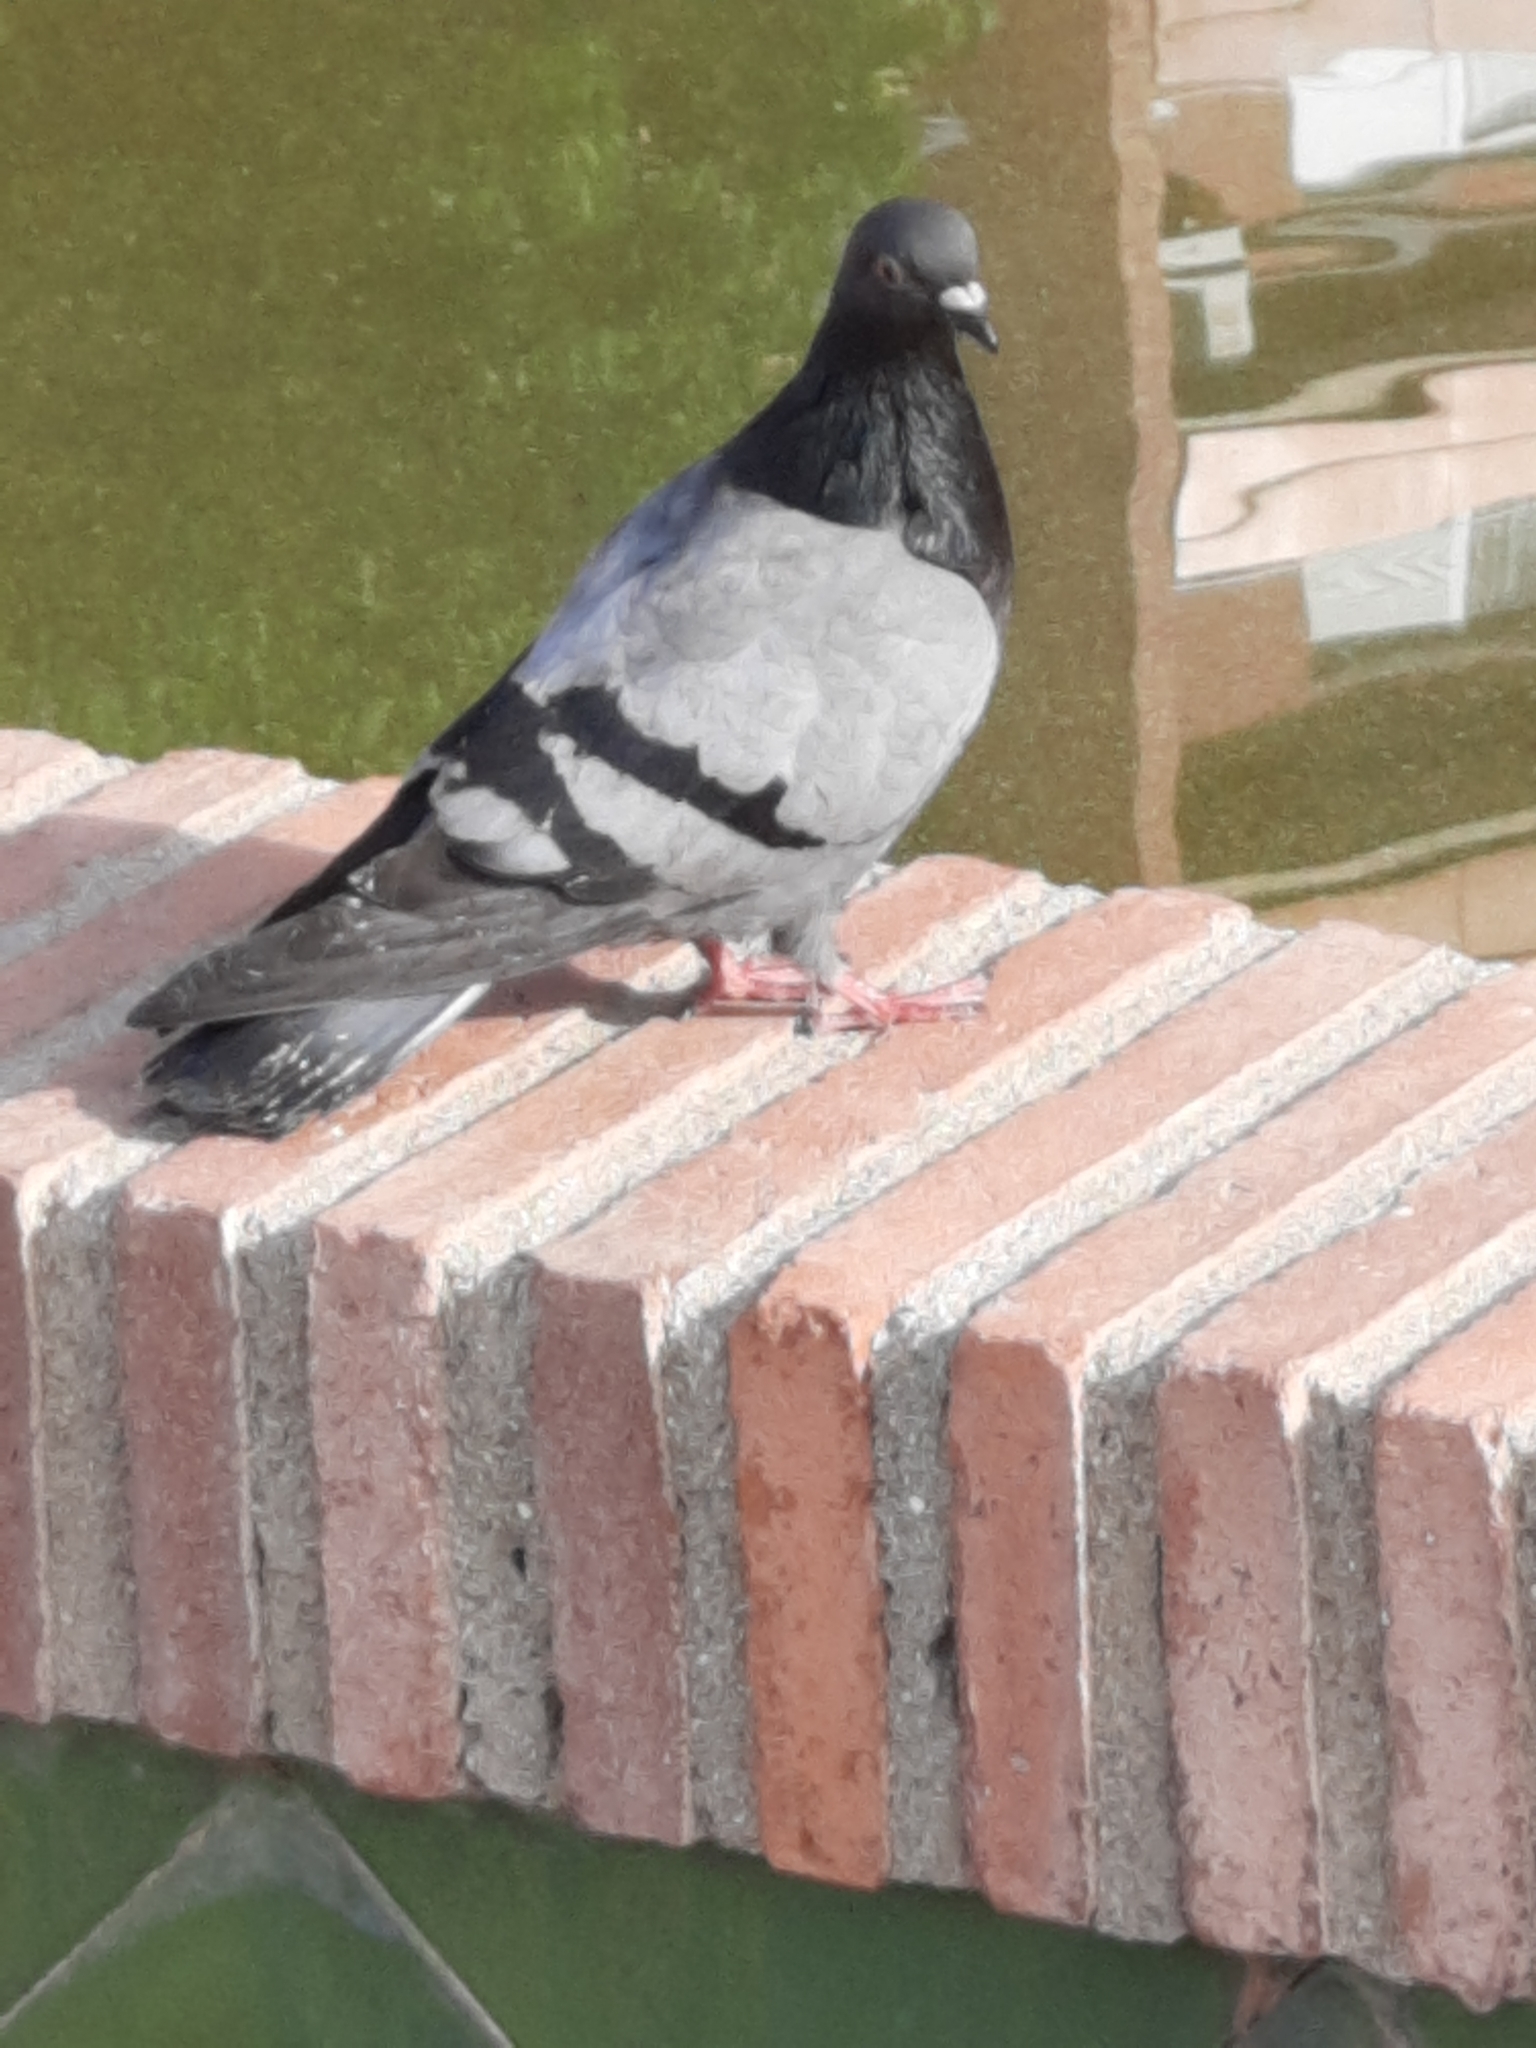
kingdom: Animalia
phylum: Chordata
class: Aves
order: Columbiformes
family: Columbidae
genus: Columba
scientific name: Columba livia
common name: Rock pigeon
